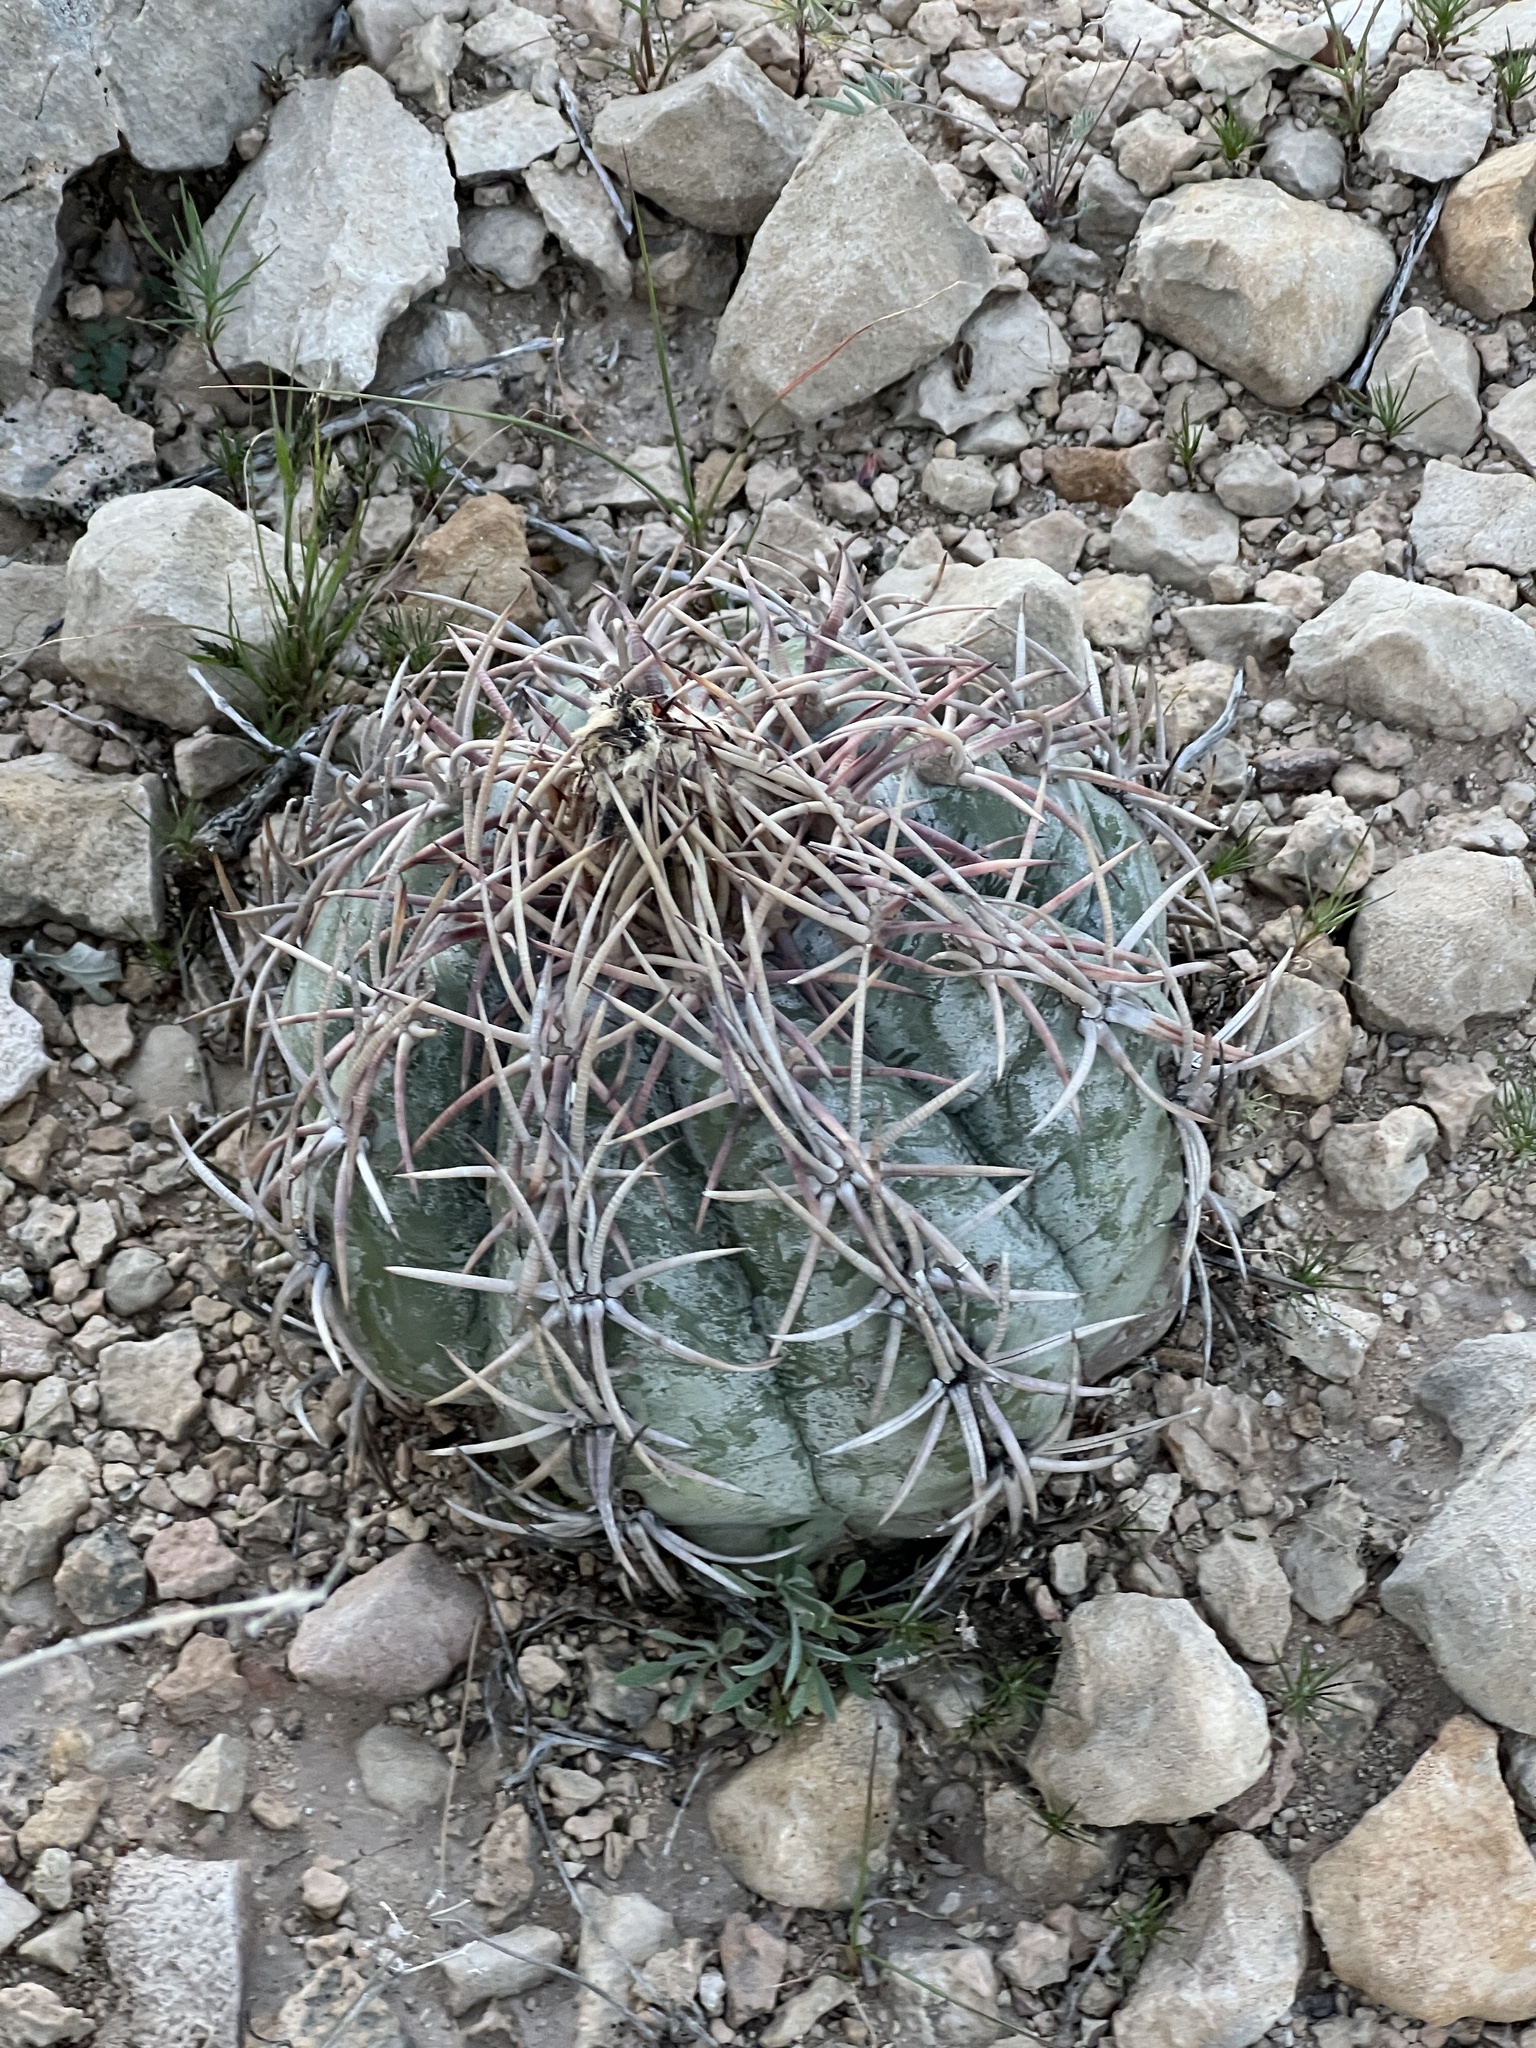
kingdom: Plantae
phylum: Tracheophyta
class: Magnoliopsida
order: Caryophyllales
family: Cactaceae
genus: Echinocactus
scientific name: Echinocactus horizonthalonius
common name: Devilshead
